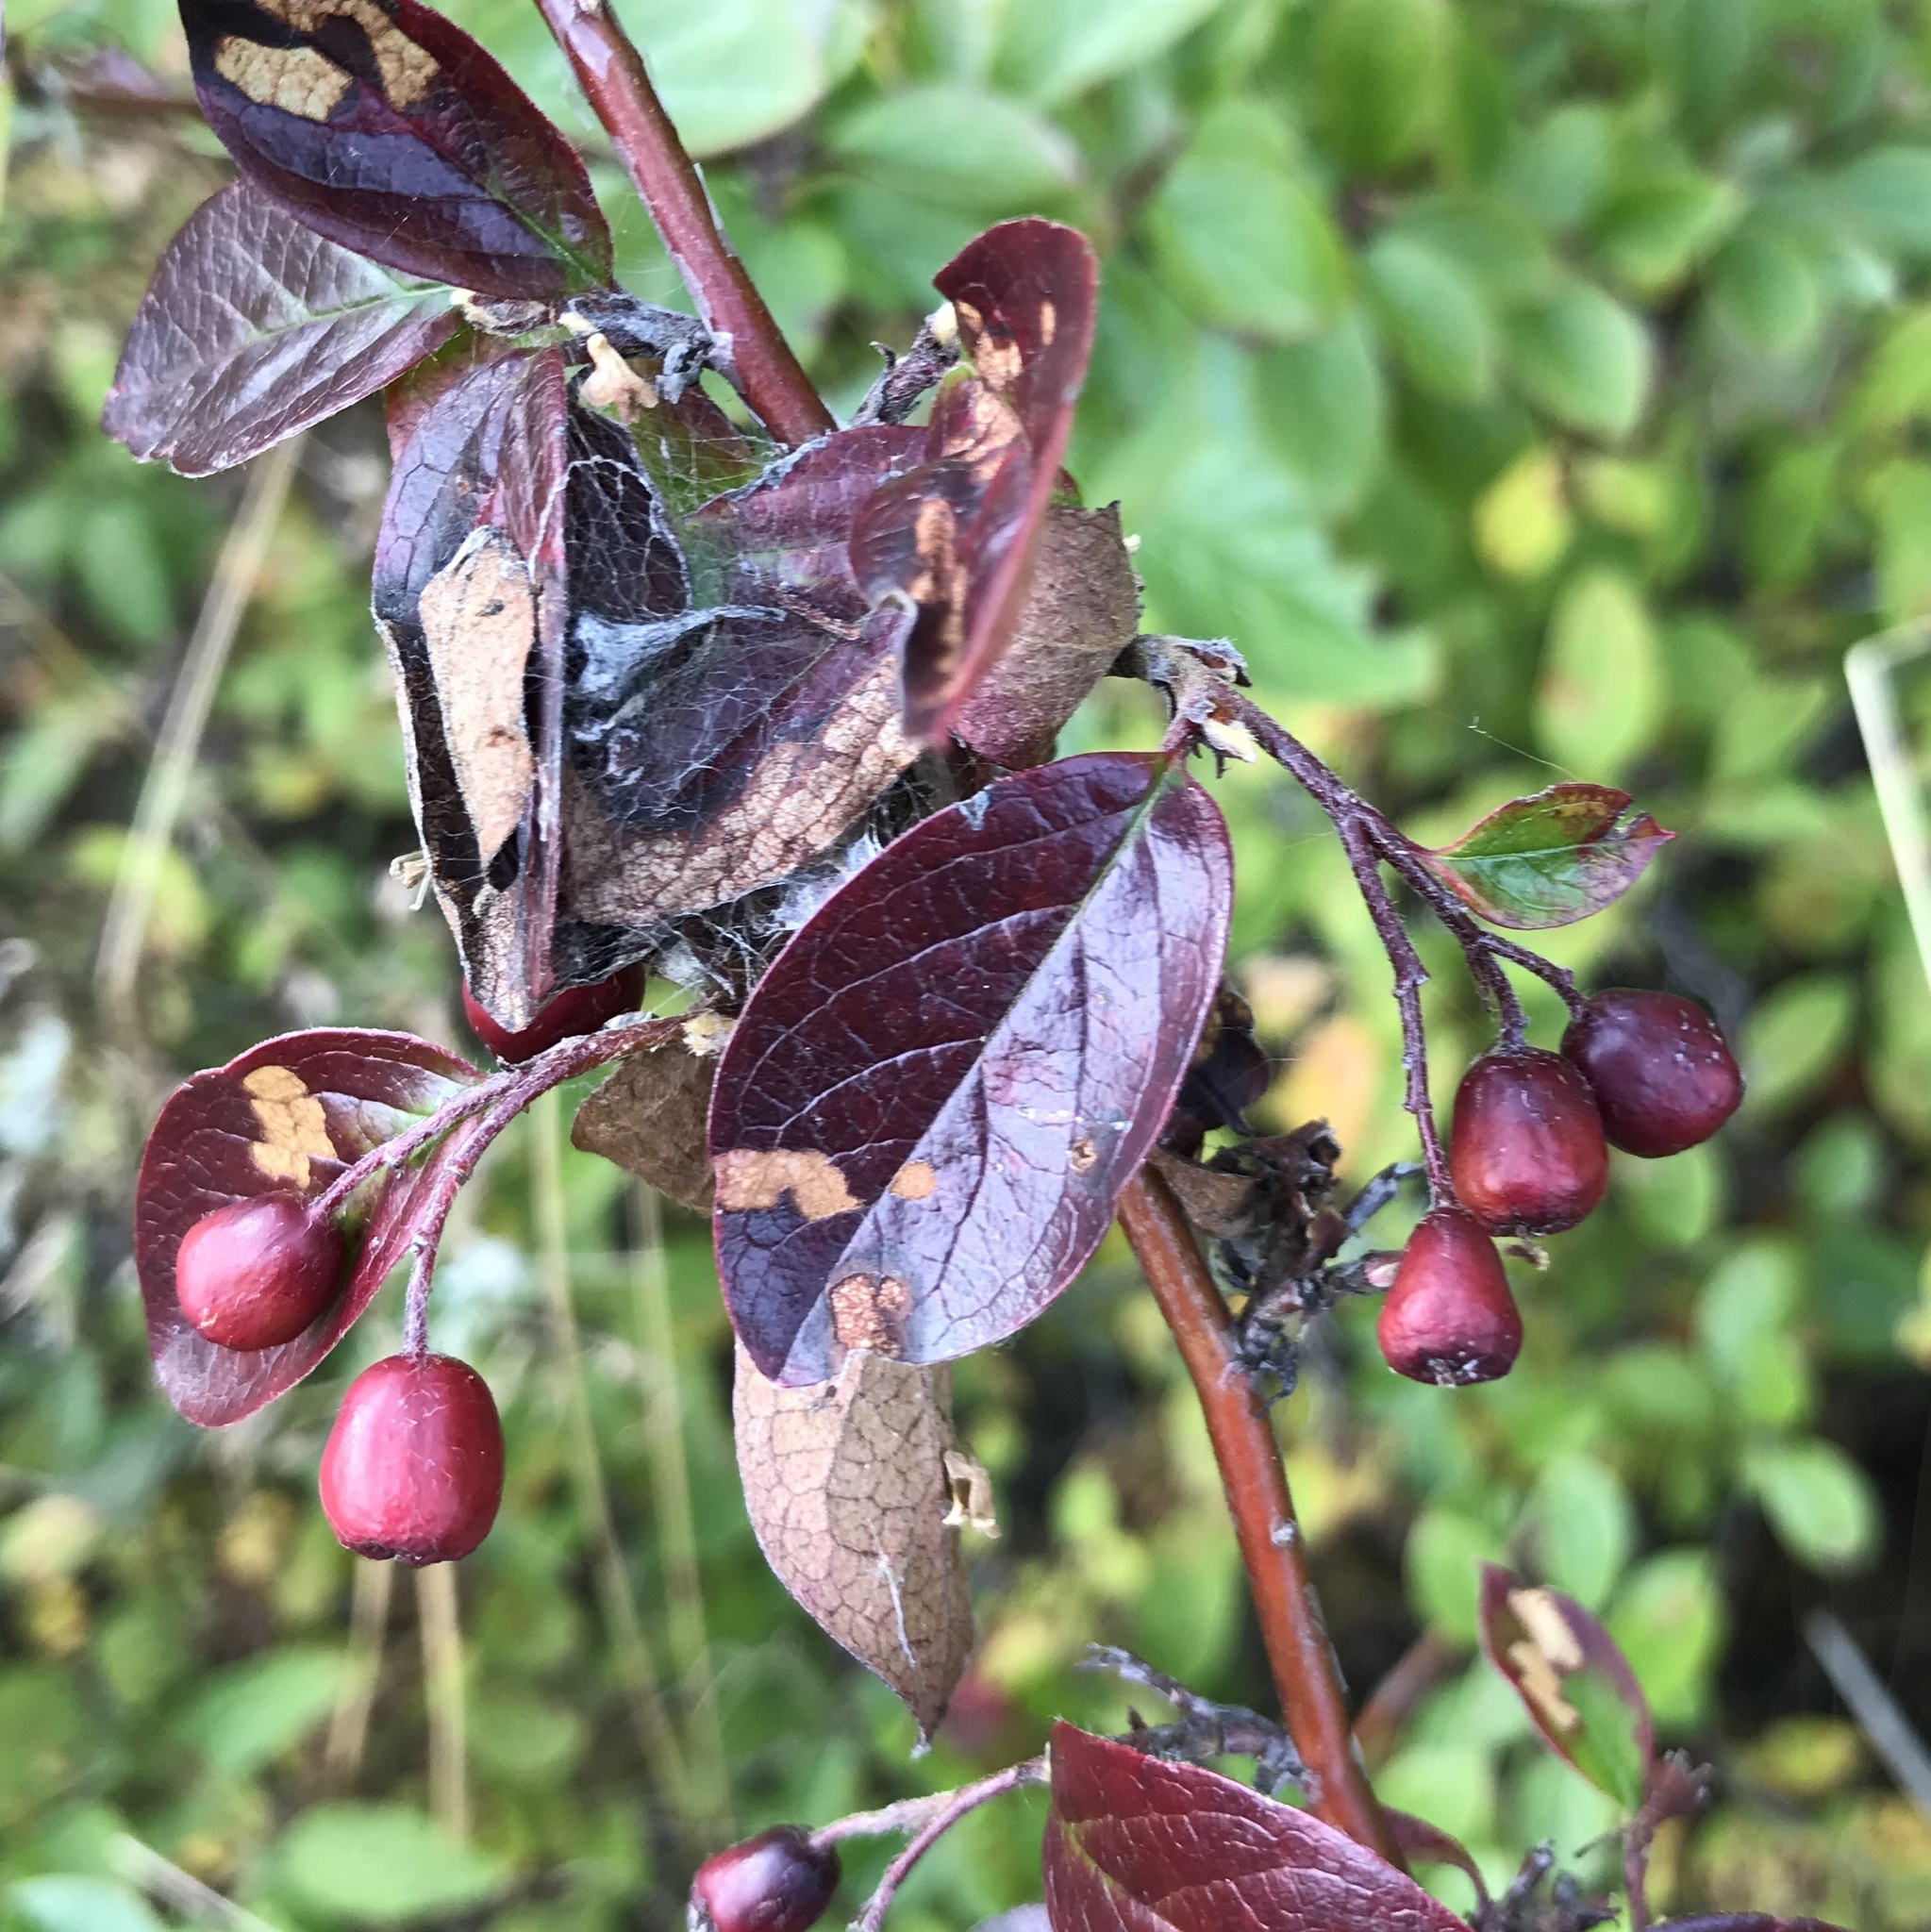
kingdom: Plantae
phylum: Tracheophyta
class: Magnoliopsida
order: Rosales
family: Rosaceae
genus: Cotoneaster
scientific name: Cotoneaster acutifolius
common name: Peking cotoneaster
